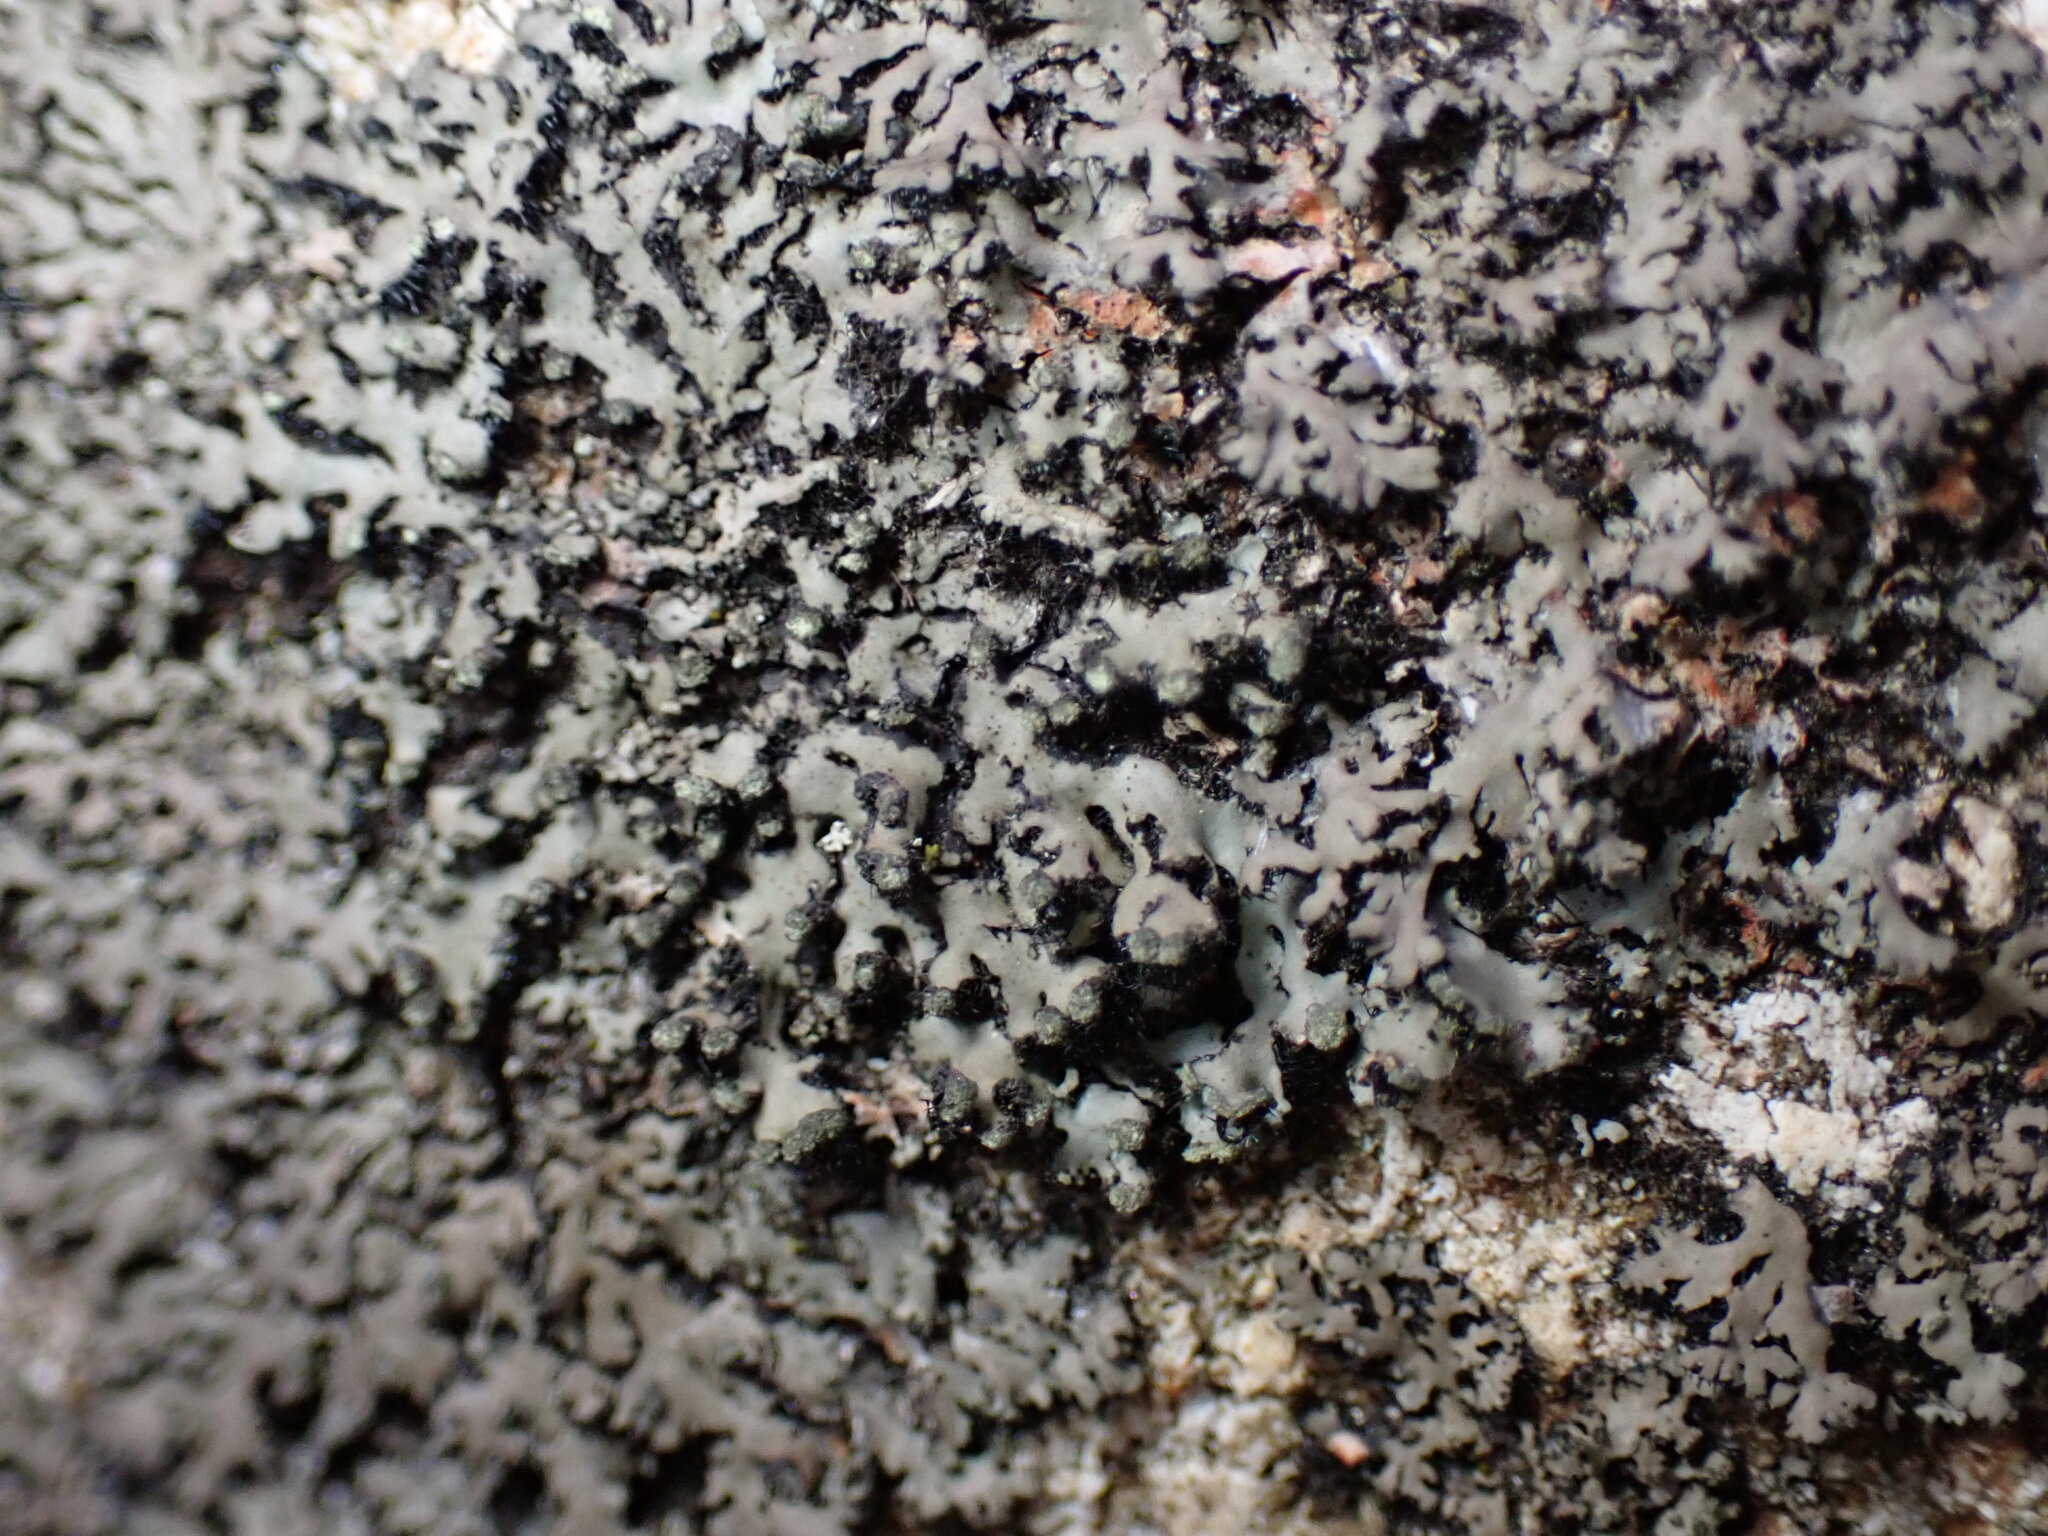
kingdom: Fungi
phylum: Ascomycota
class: Lecanoromycetes
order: Caliciales
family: Physciaceae
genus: Phaeophyscia
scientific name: Phaeophyscia pusilloides
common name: Pom-pom shadow lichen
